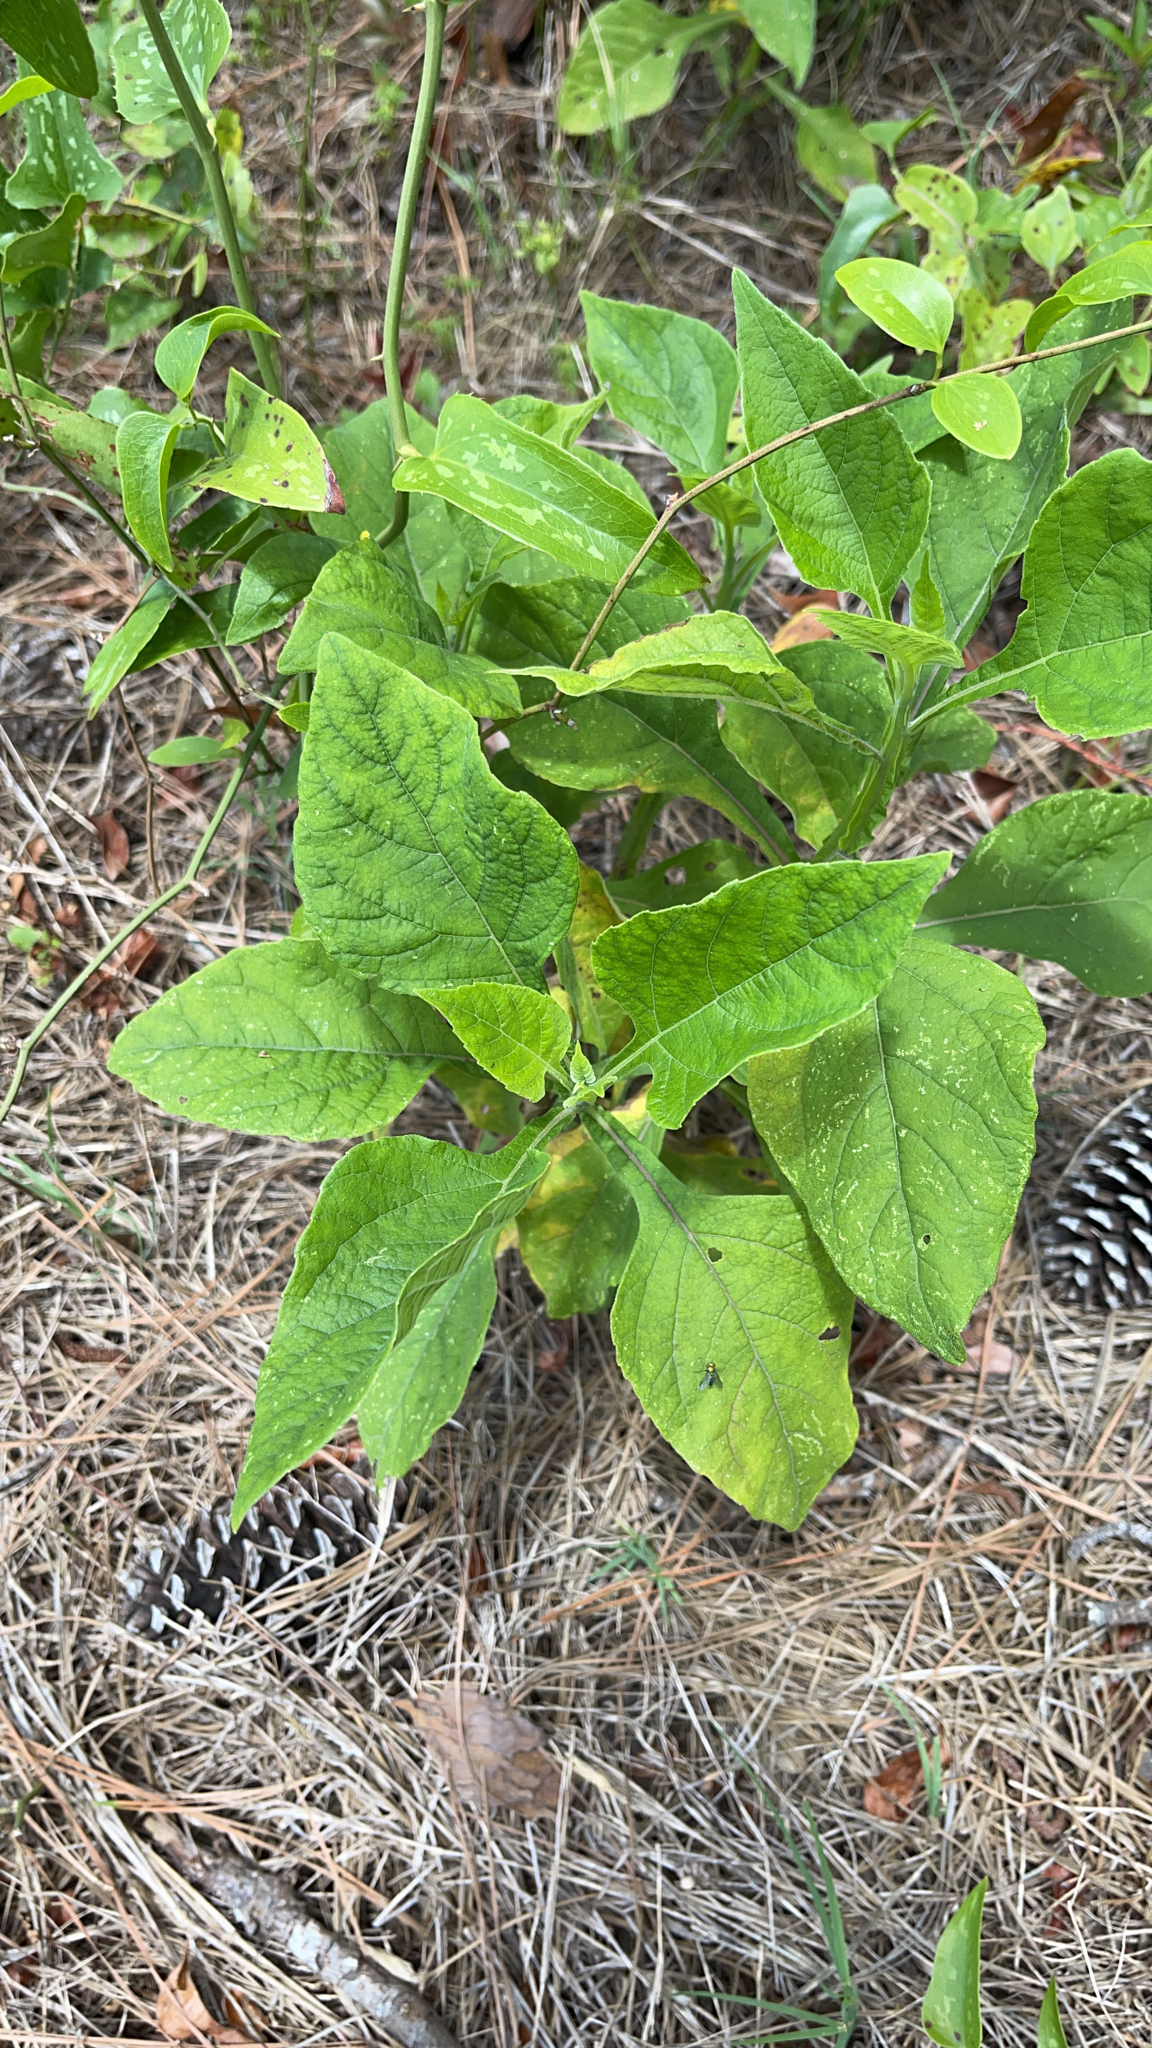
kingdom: Plantae
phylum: Tracheophyta
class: Magnoliopsida
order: Asterales
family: Asteraceae
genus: Verbesina
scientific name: Verbesina virginica
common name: Frostweed
